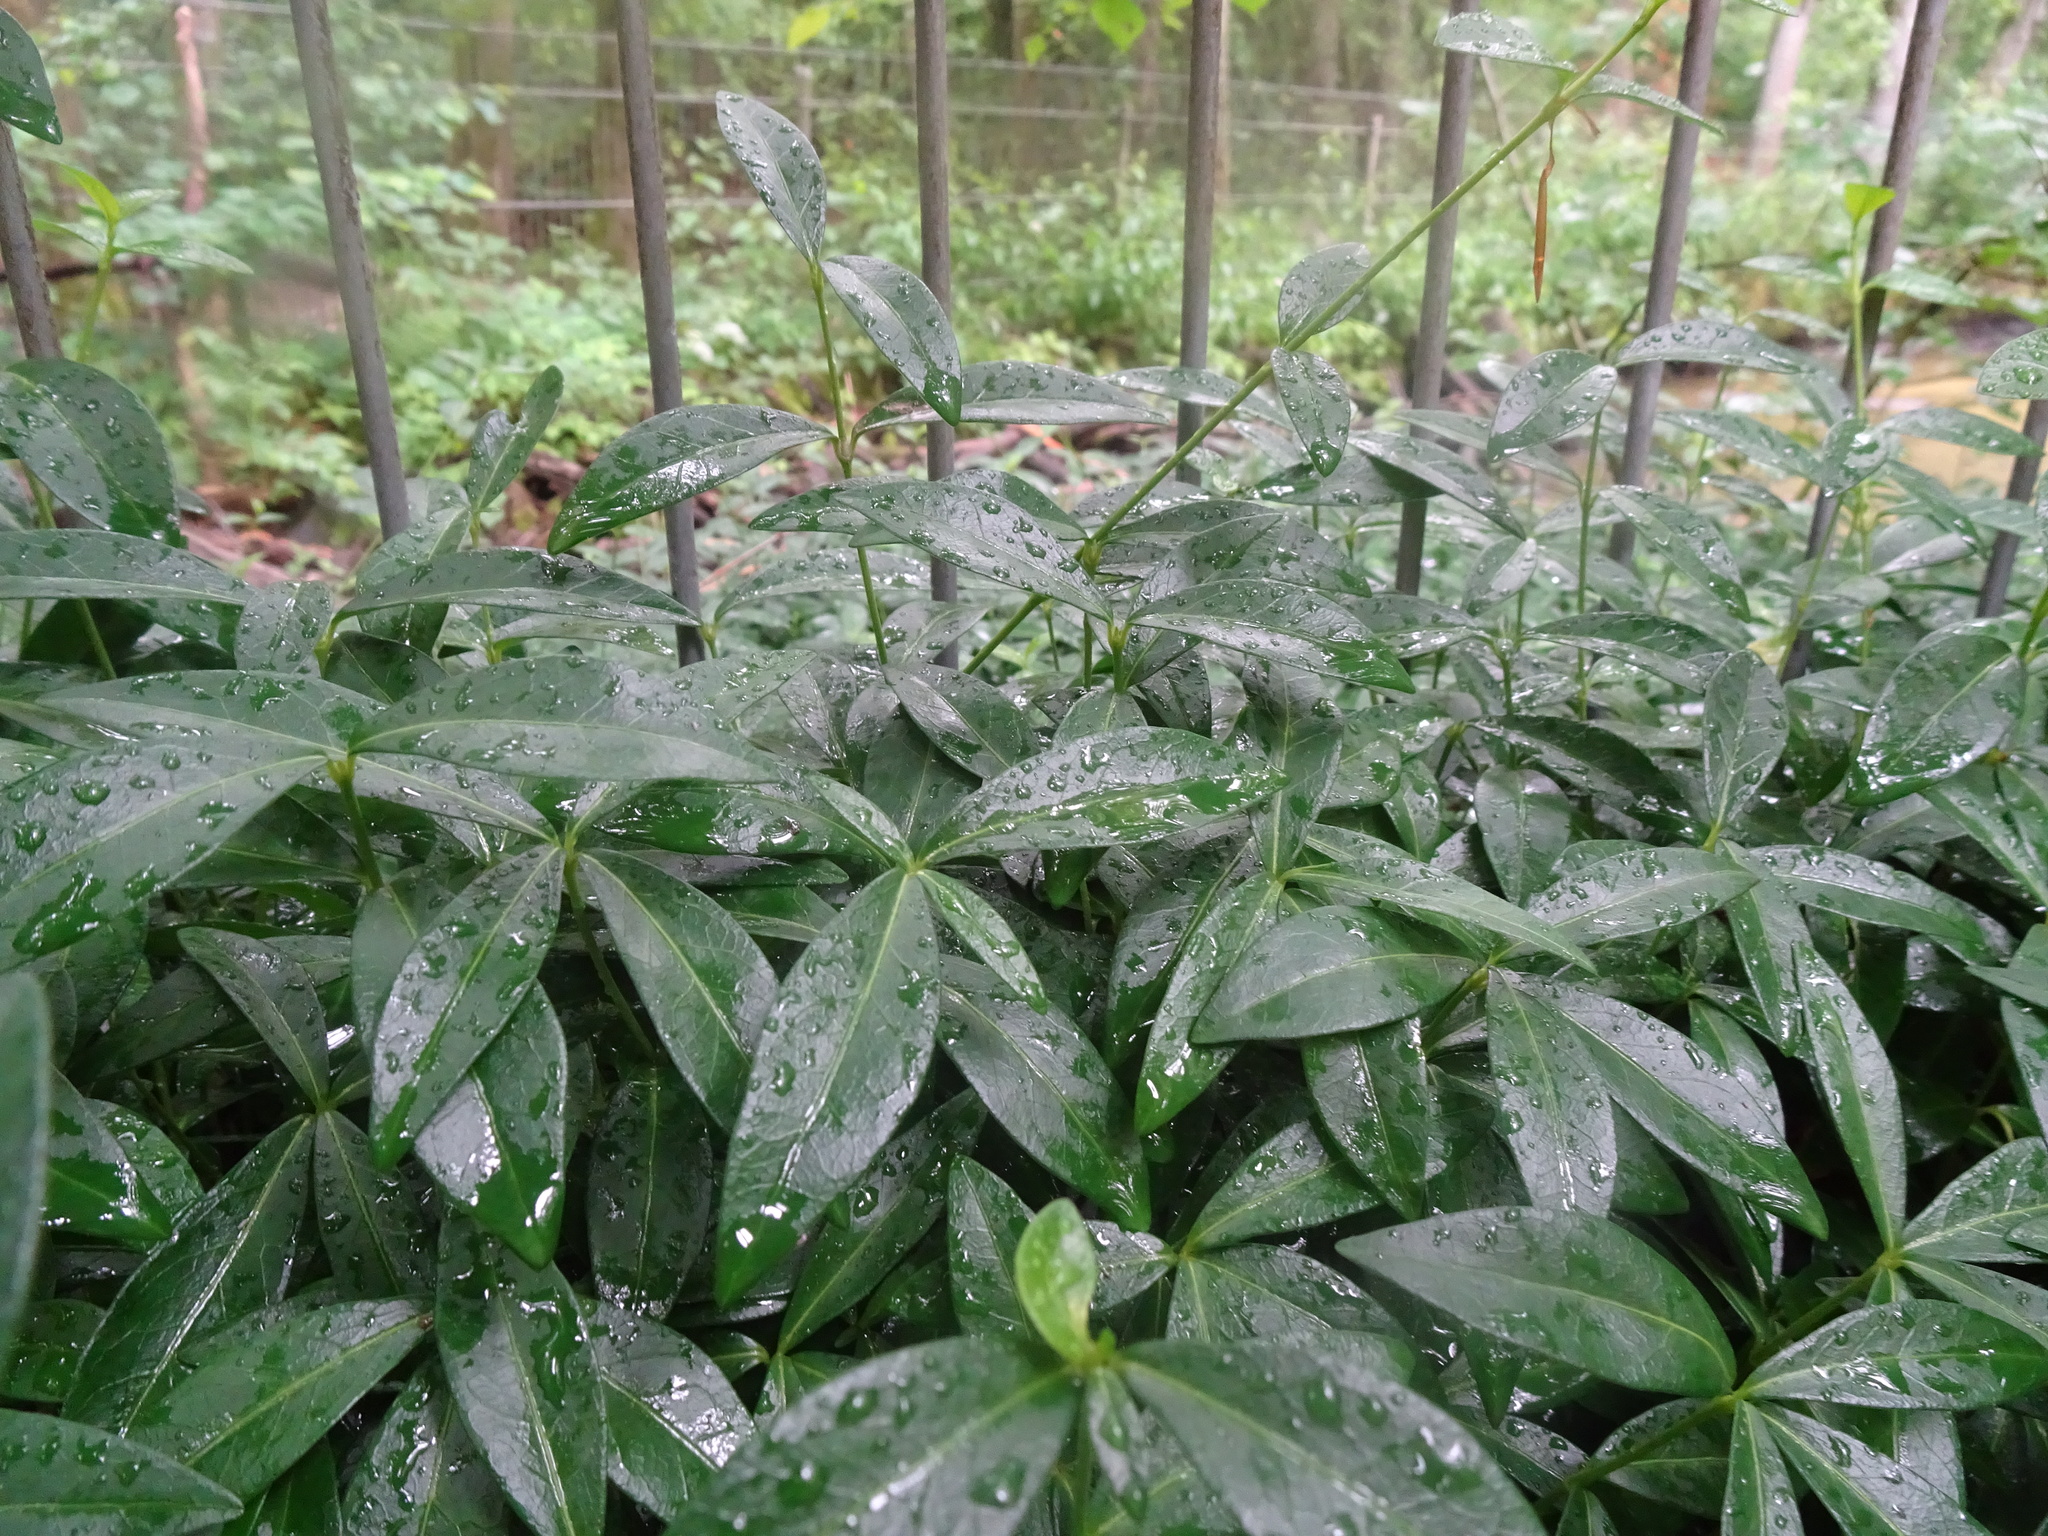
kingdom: Plantae
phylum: Tracheophyta
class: Magnoliopsida
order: Lamiales
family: Oleaceae
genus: Ligustrum
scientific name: Ligustrum vulgare
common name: Wild privet
